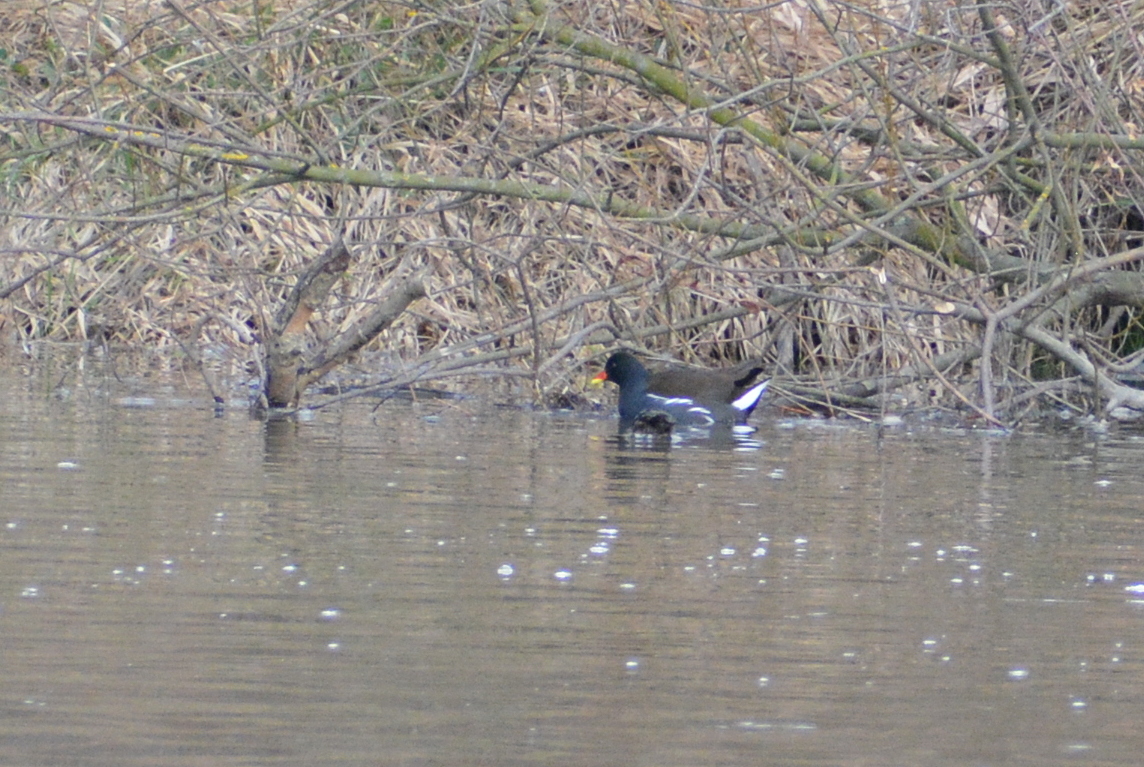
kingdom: Animalia
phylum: Chordata
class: Aves
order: Gruiformes
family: Rallidae
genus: Gallinula
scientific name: Gallinula chloropus
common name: Common moorhen
